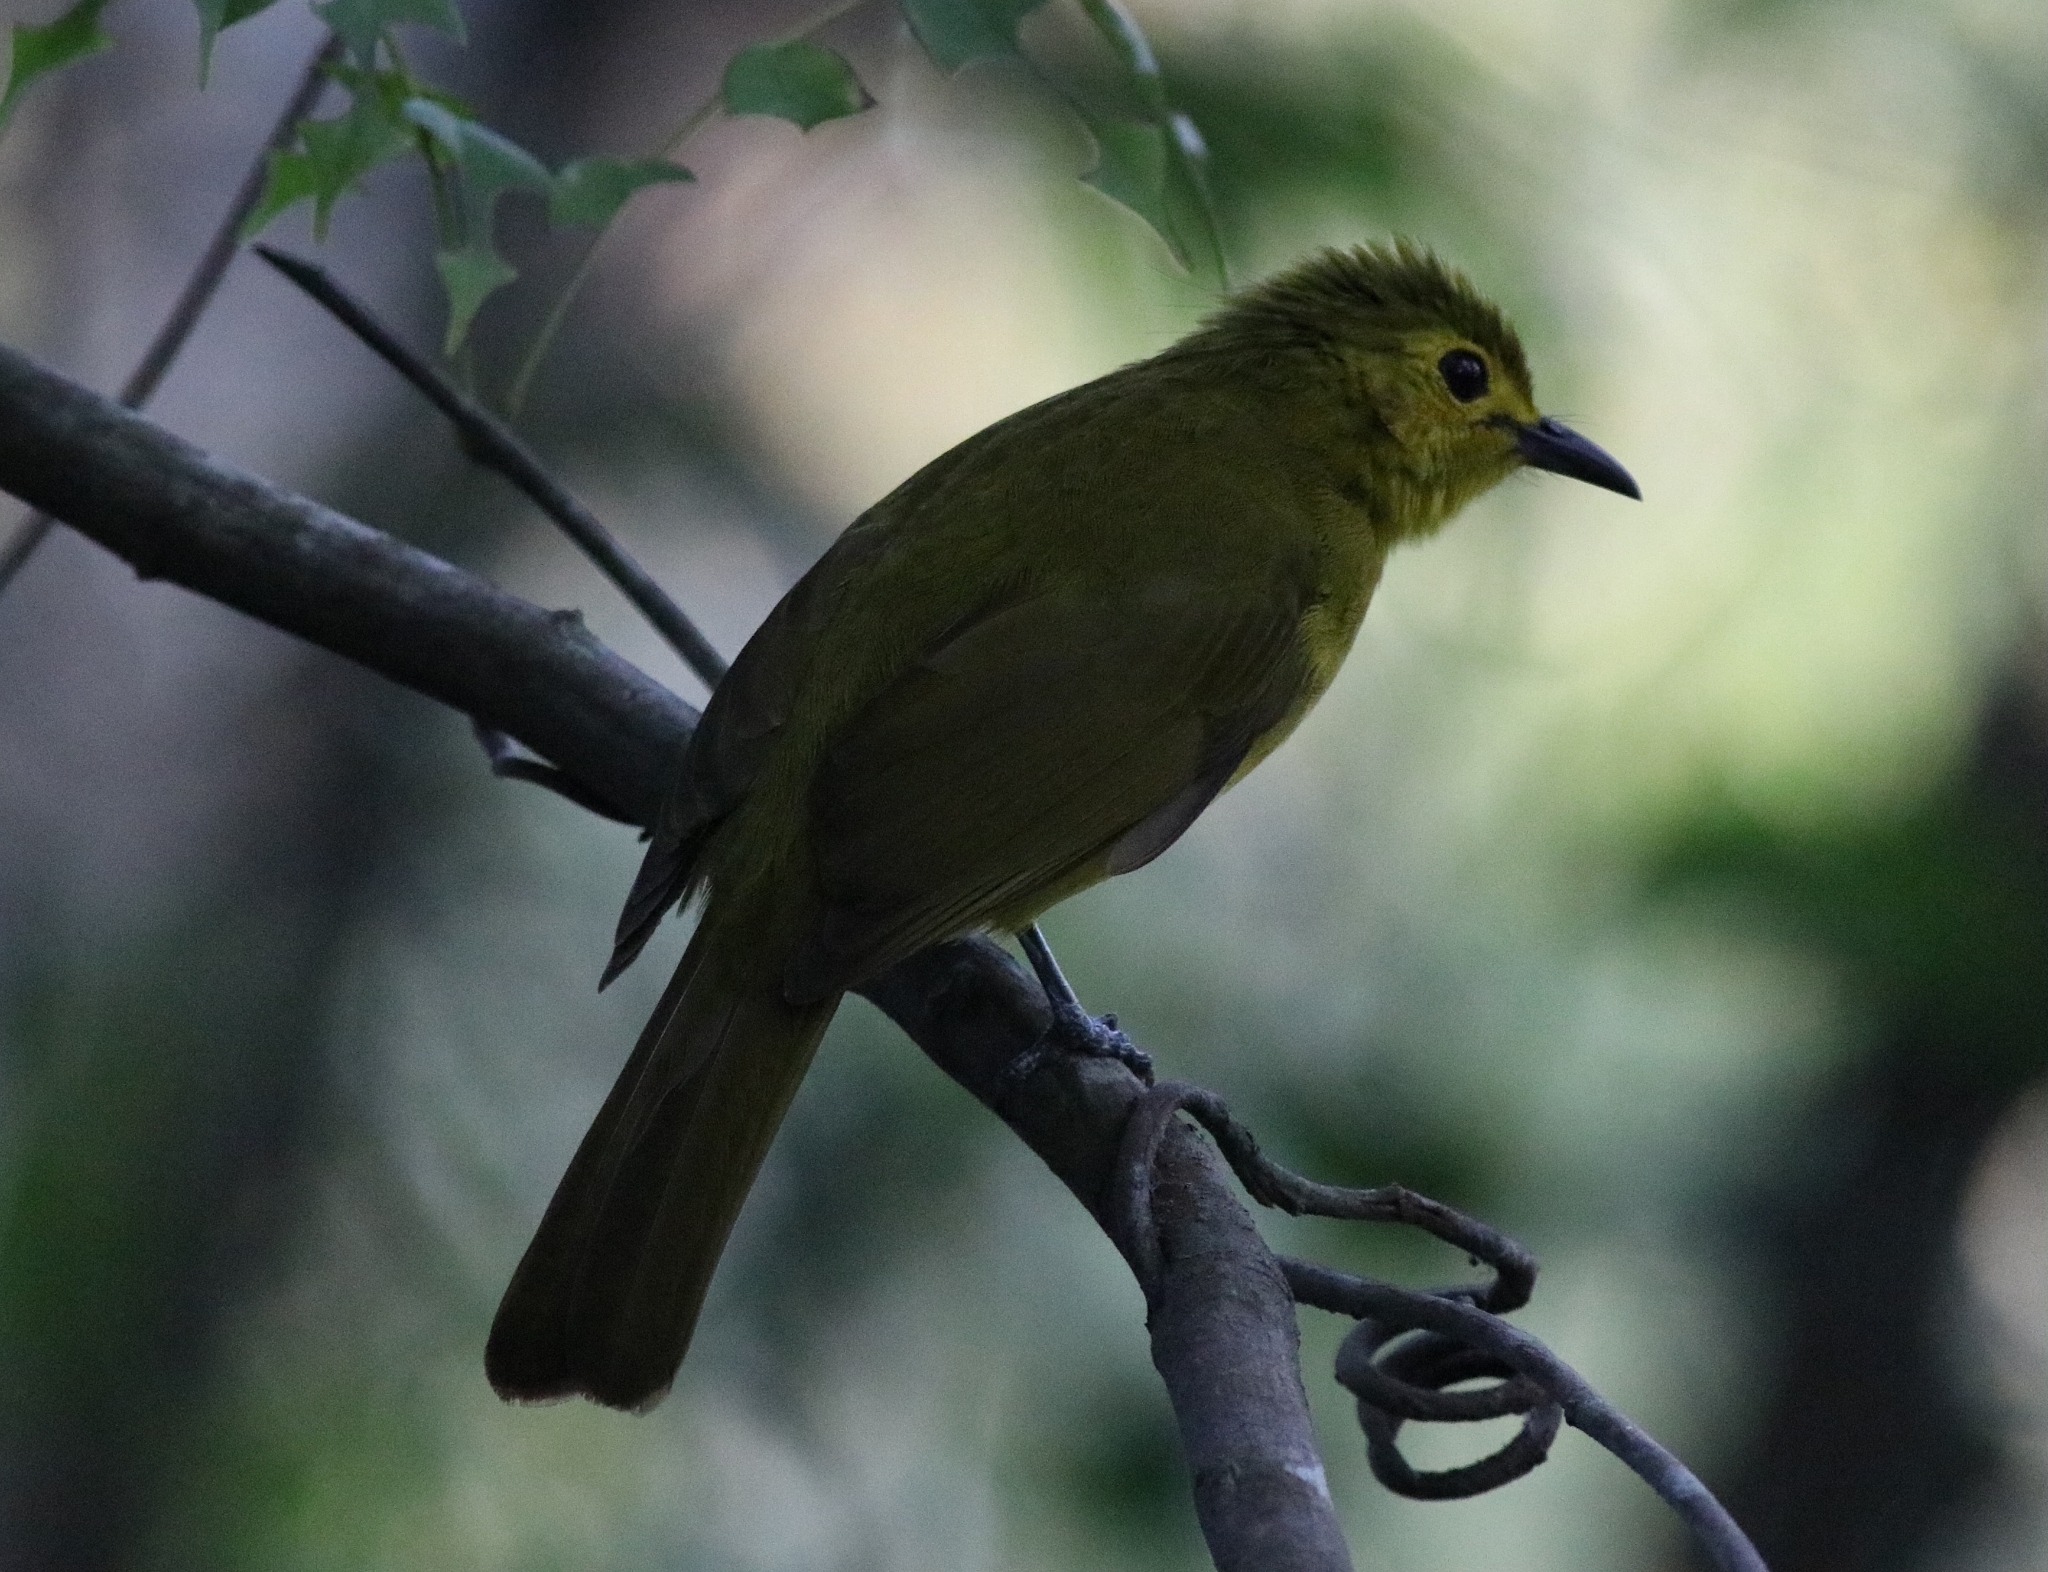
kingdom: Animalia
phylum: Chordata
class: Aves
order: Passeriformes
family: Pycnonotidae
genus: Acritillas
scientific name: Acritillas indica
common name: Yellow-browed bulbul
